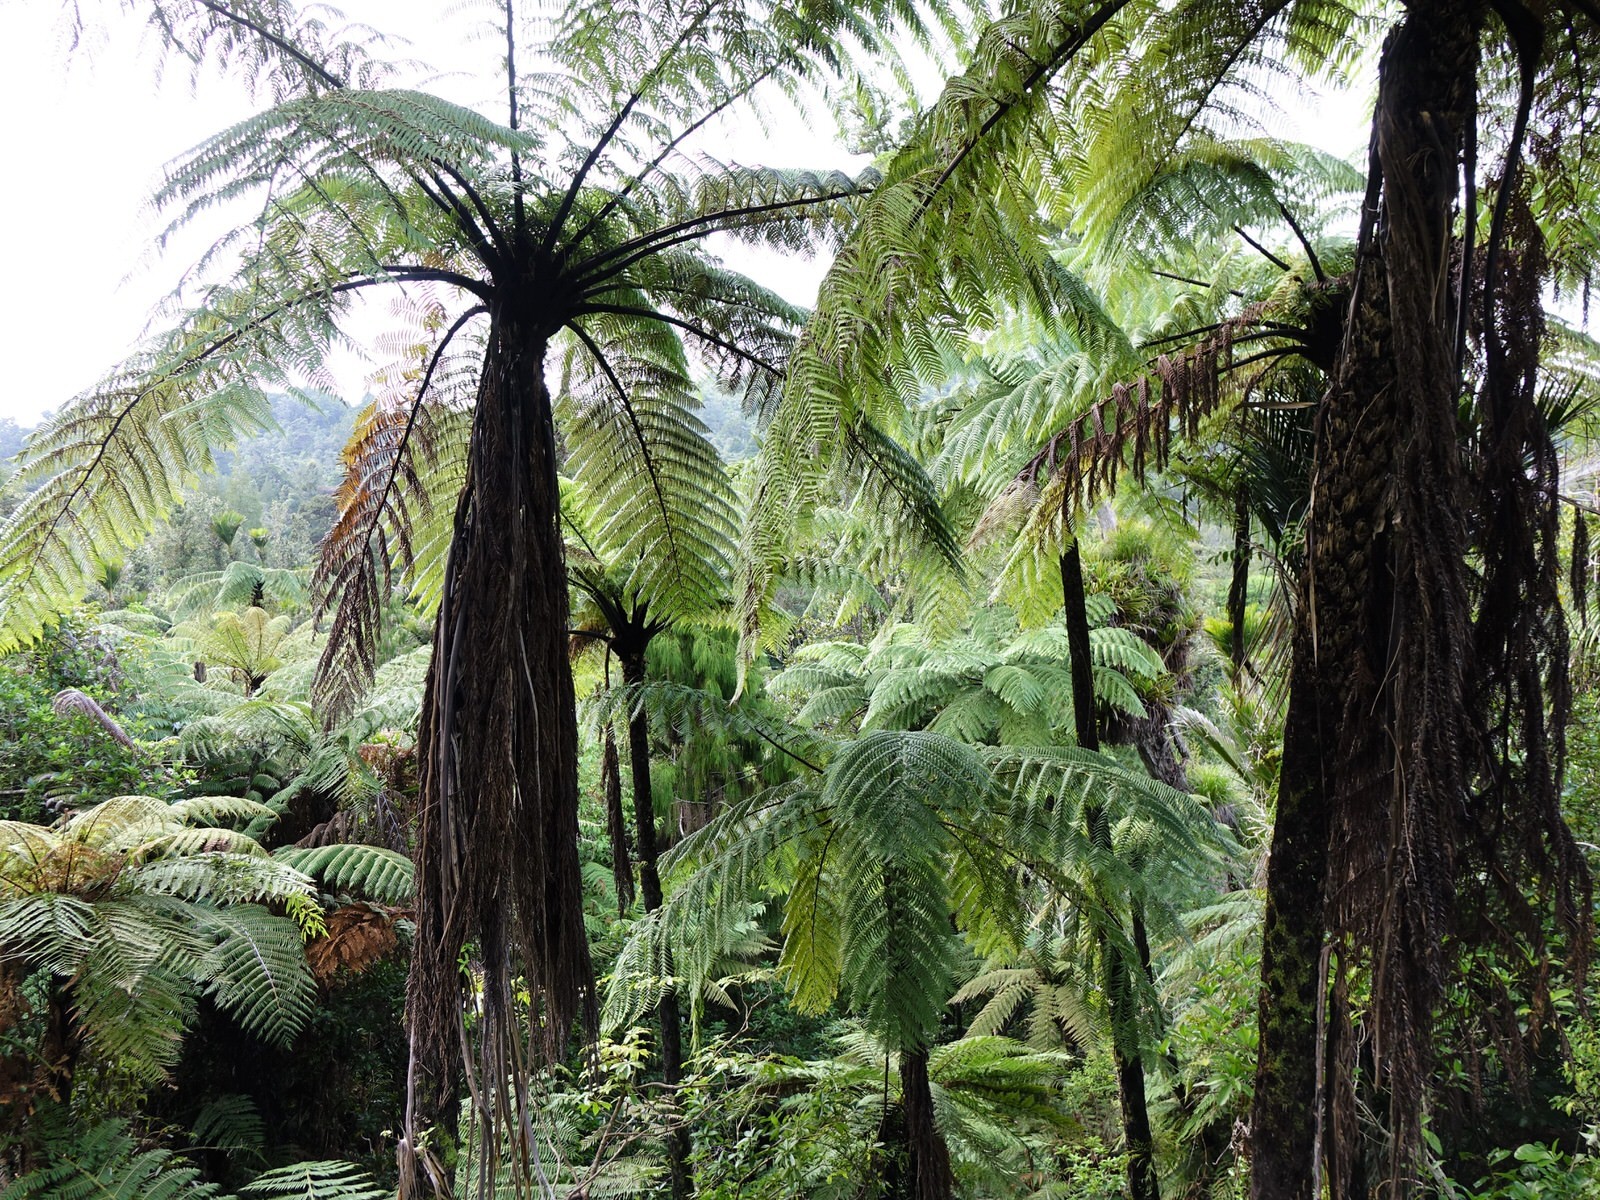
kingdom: Plantae
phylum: Tracheophyta
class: Polypodiopsida
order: Cyatheales
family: Cyatheaceae
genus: Sphaeropteris
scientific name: Sphaeropteris medullaris
